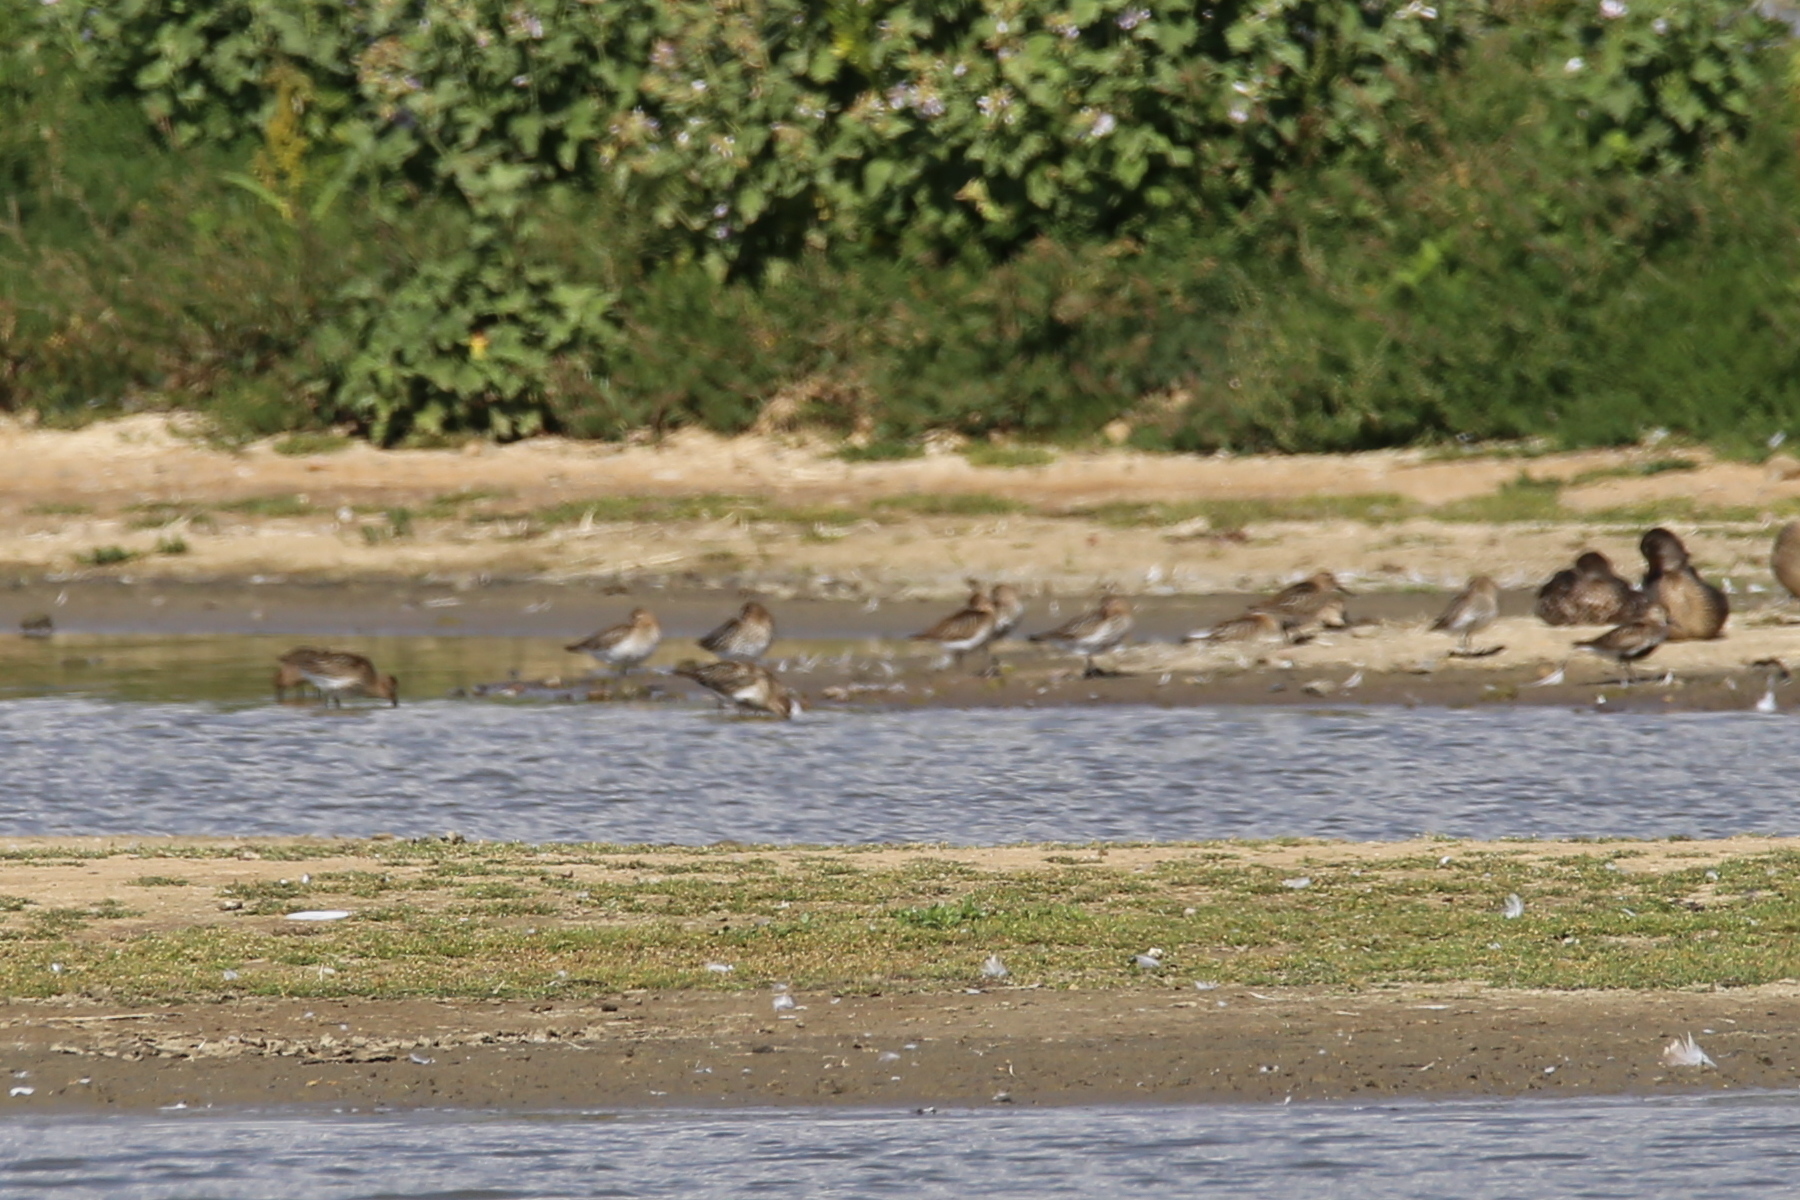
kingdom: Animalia
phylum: Chordata
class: Aves
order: Charadriiformes
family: Scolopacidae
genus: Calidris
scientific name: Calidris alpina
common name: Dunlin
